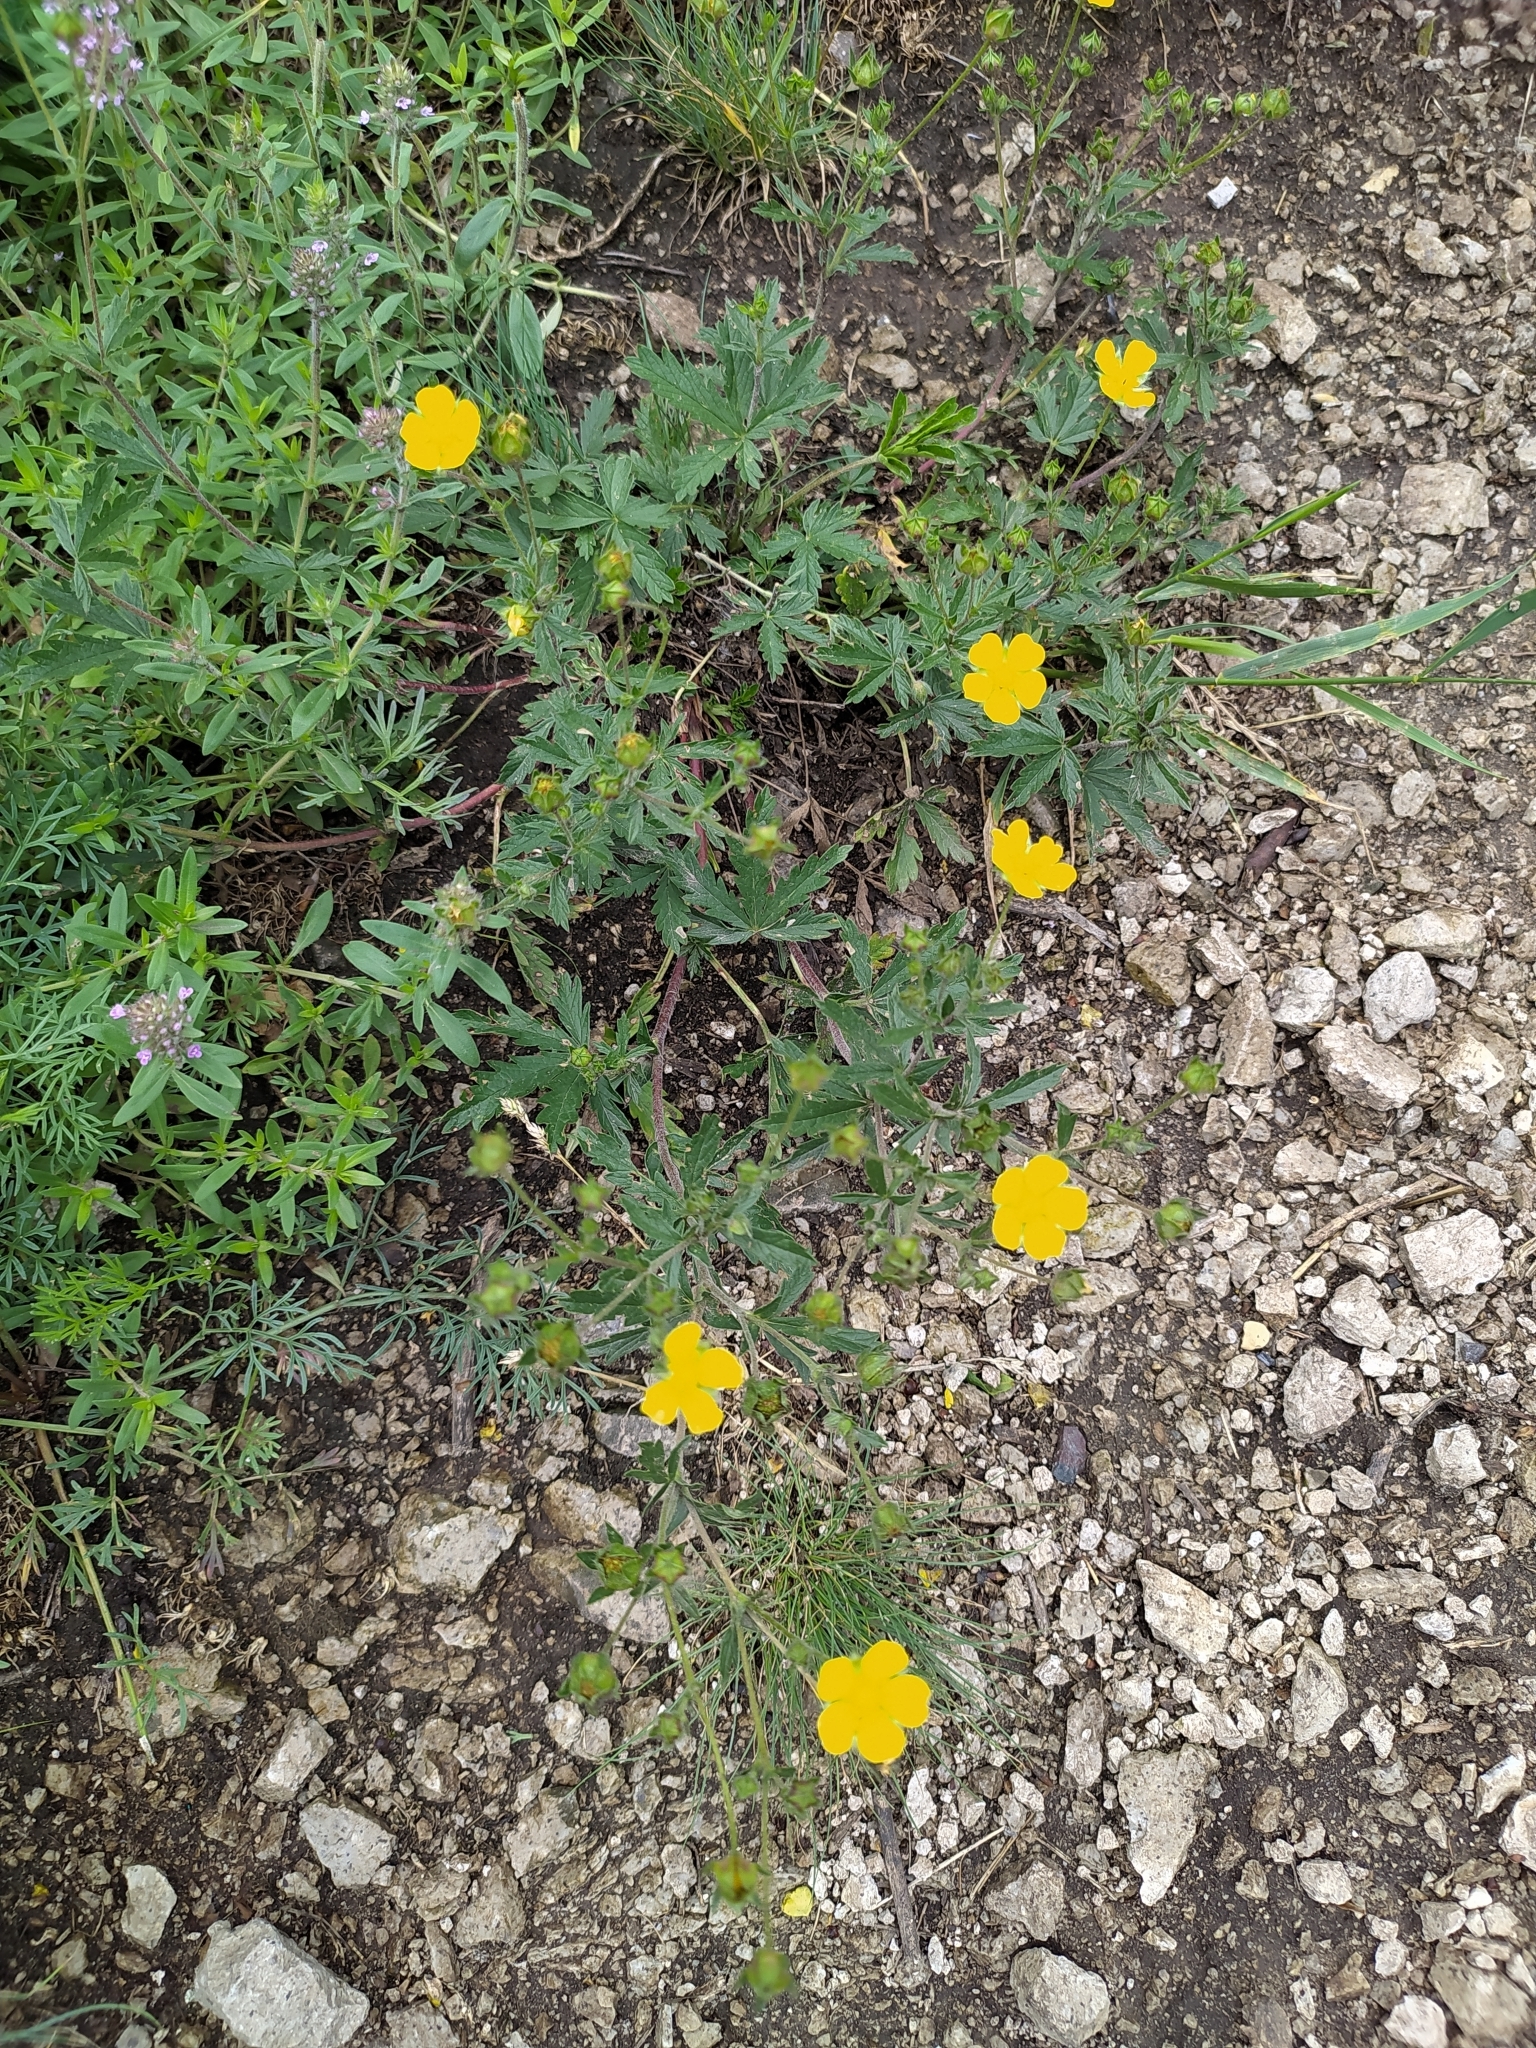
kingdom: Plantae
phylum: Tracheophyta
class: Magnoliopsida
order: Rosales
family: Rosaceae
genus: Potentilla
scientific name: Potentilla thuringiaca
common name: European cinquefoil
